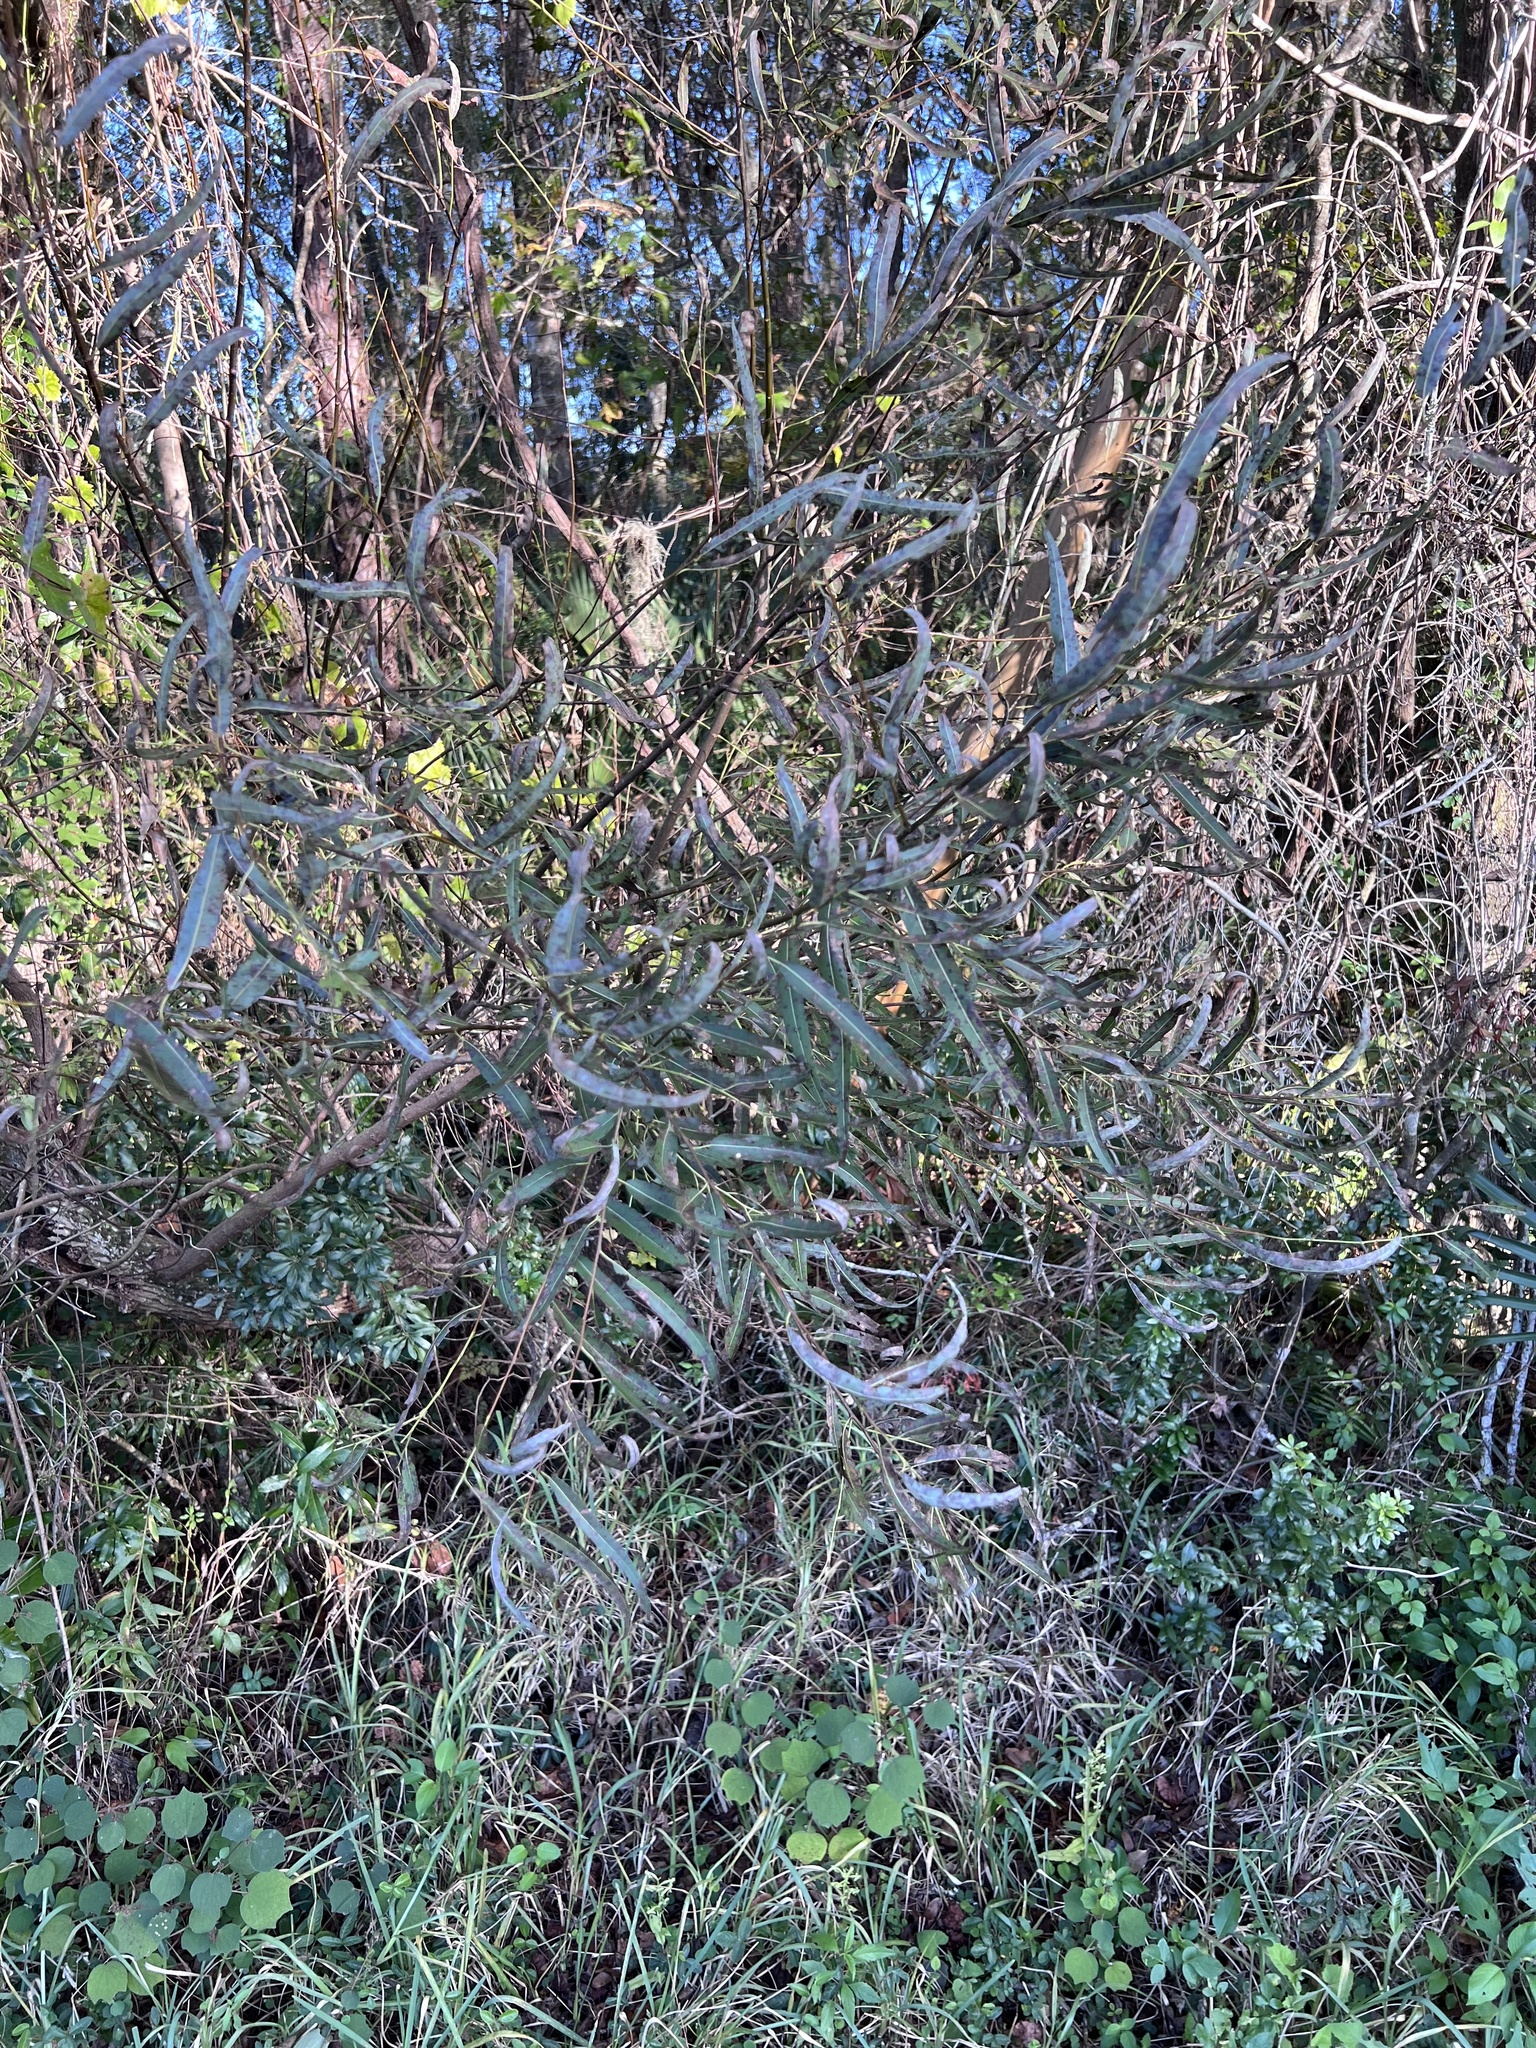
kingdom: Plantae
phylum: Tracheophyta
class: Magnoliopsida
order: Malpighiales
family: Salicaceae
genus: Salix
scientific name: Salix caroliniana
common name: Carolina willow
